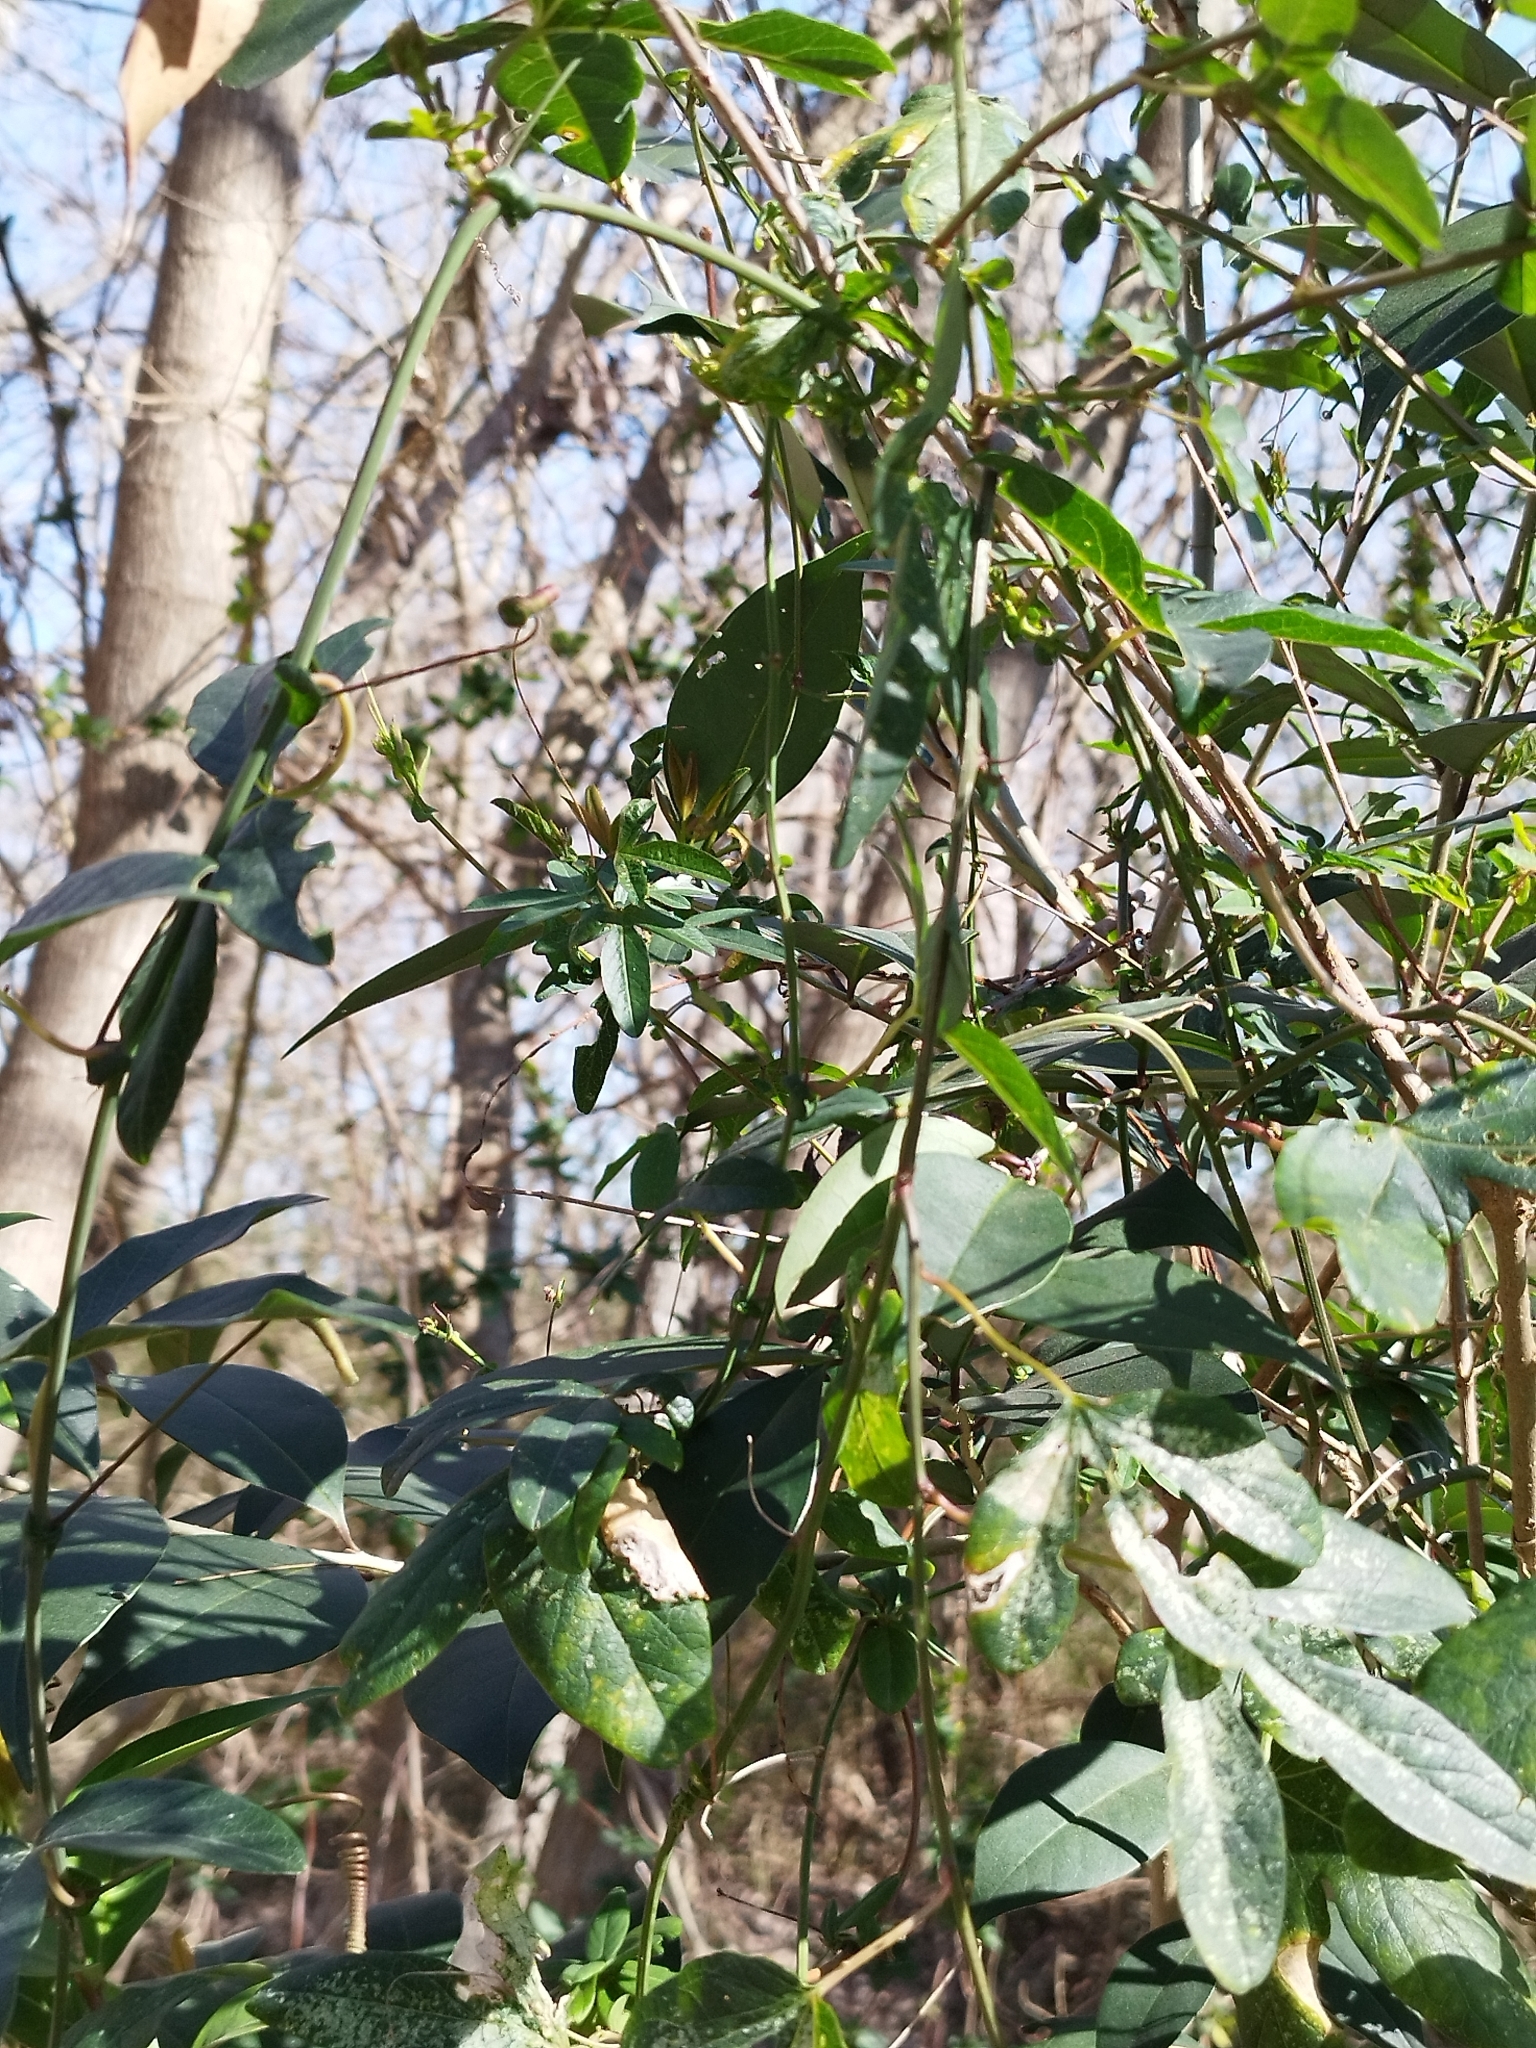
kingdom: Plantae
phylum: Tracheophyta
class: Magnoliopsida
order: Malpighiales
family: Passifloraceae
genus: Passiflora
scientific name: Passiflora caerulea
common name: Blue passionflower
